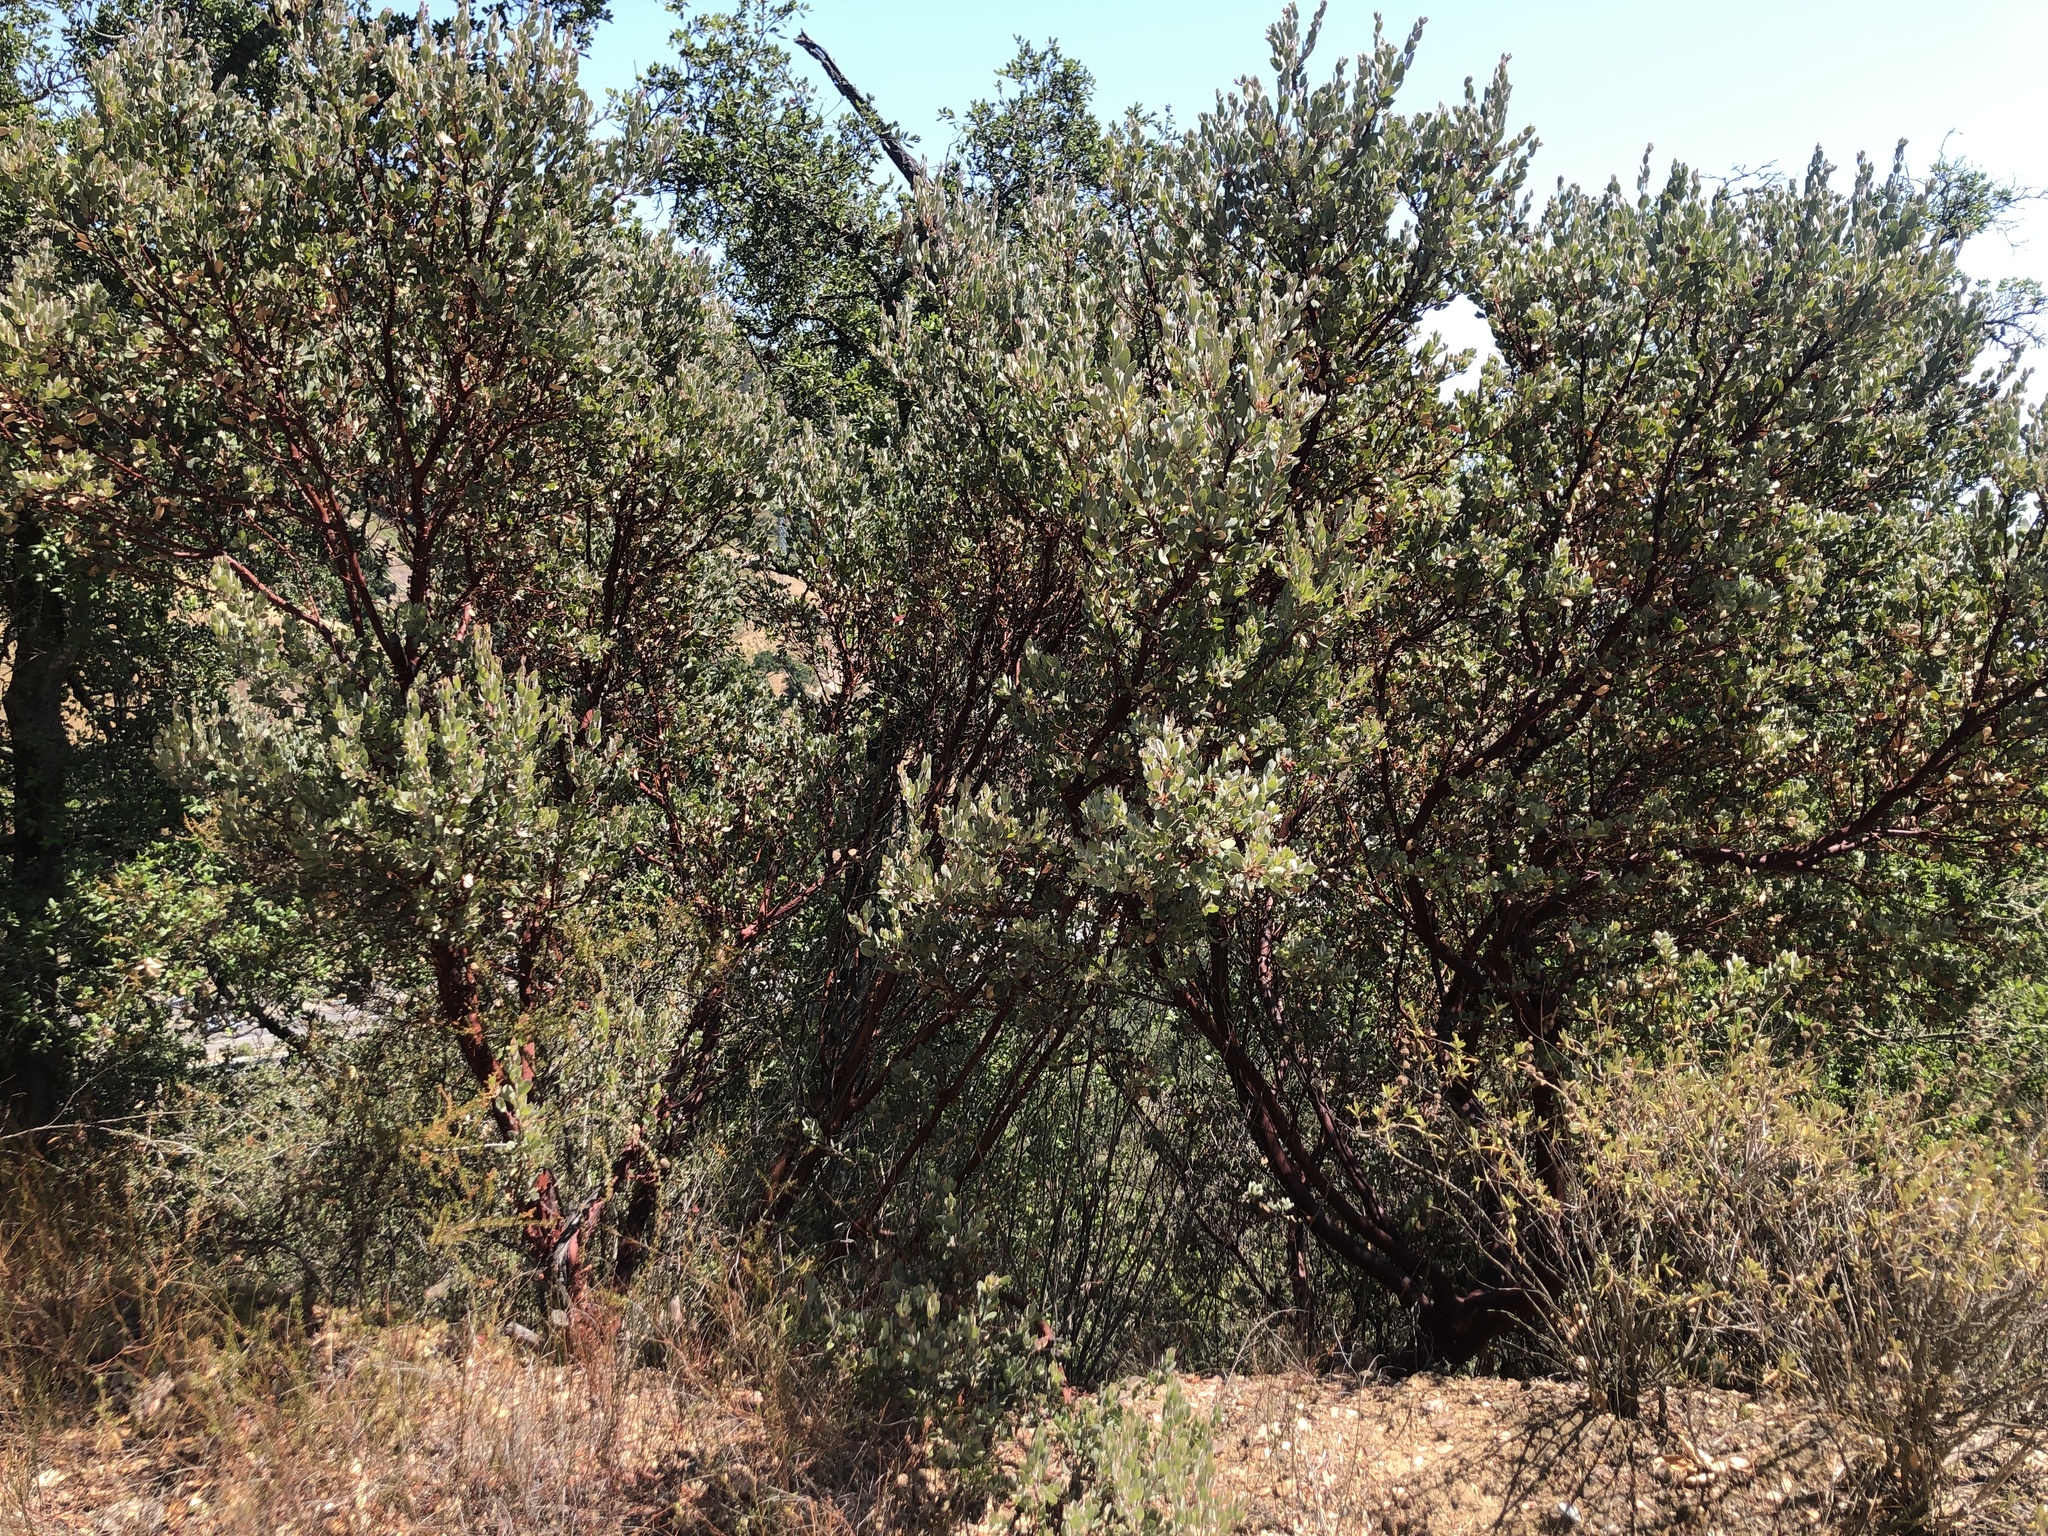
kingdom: Plantae
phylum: Tracheophyta
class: Magnoliopsida
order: Ericales
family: Ericaceae
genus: Arctostaphylos
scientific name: Arctostaphylos obispoensis
